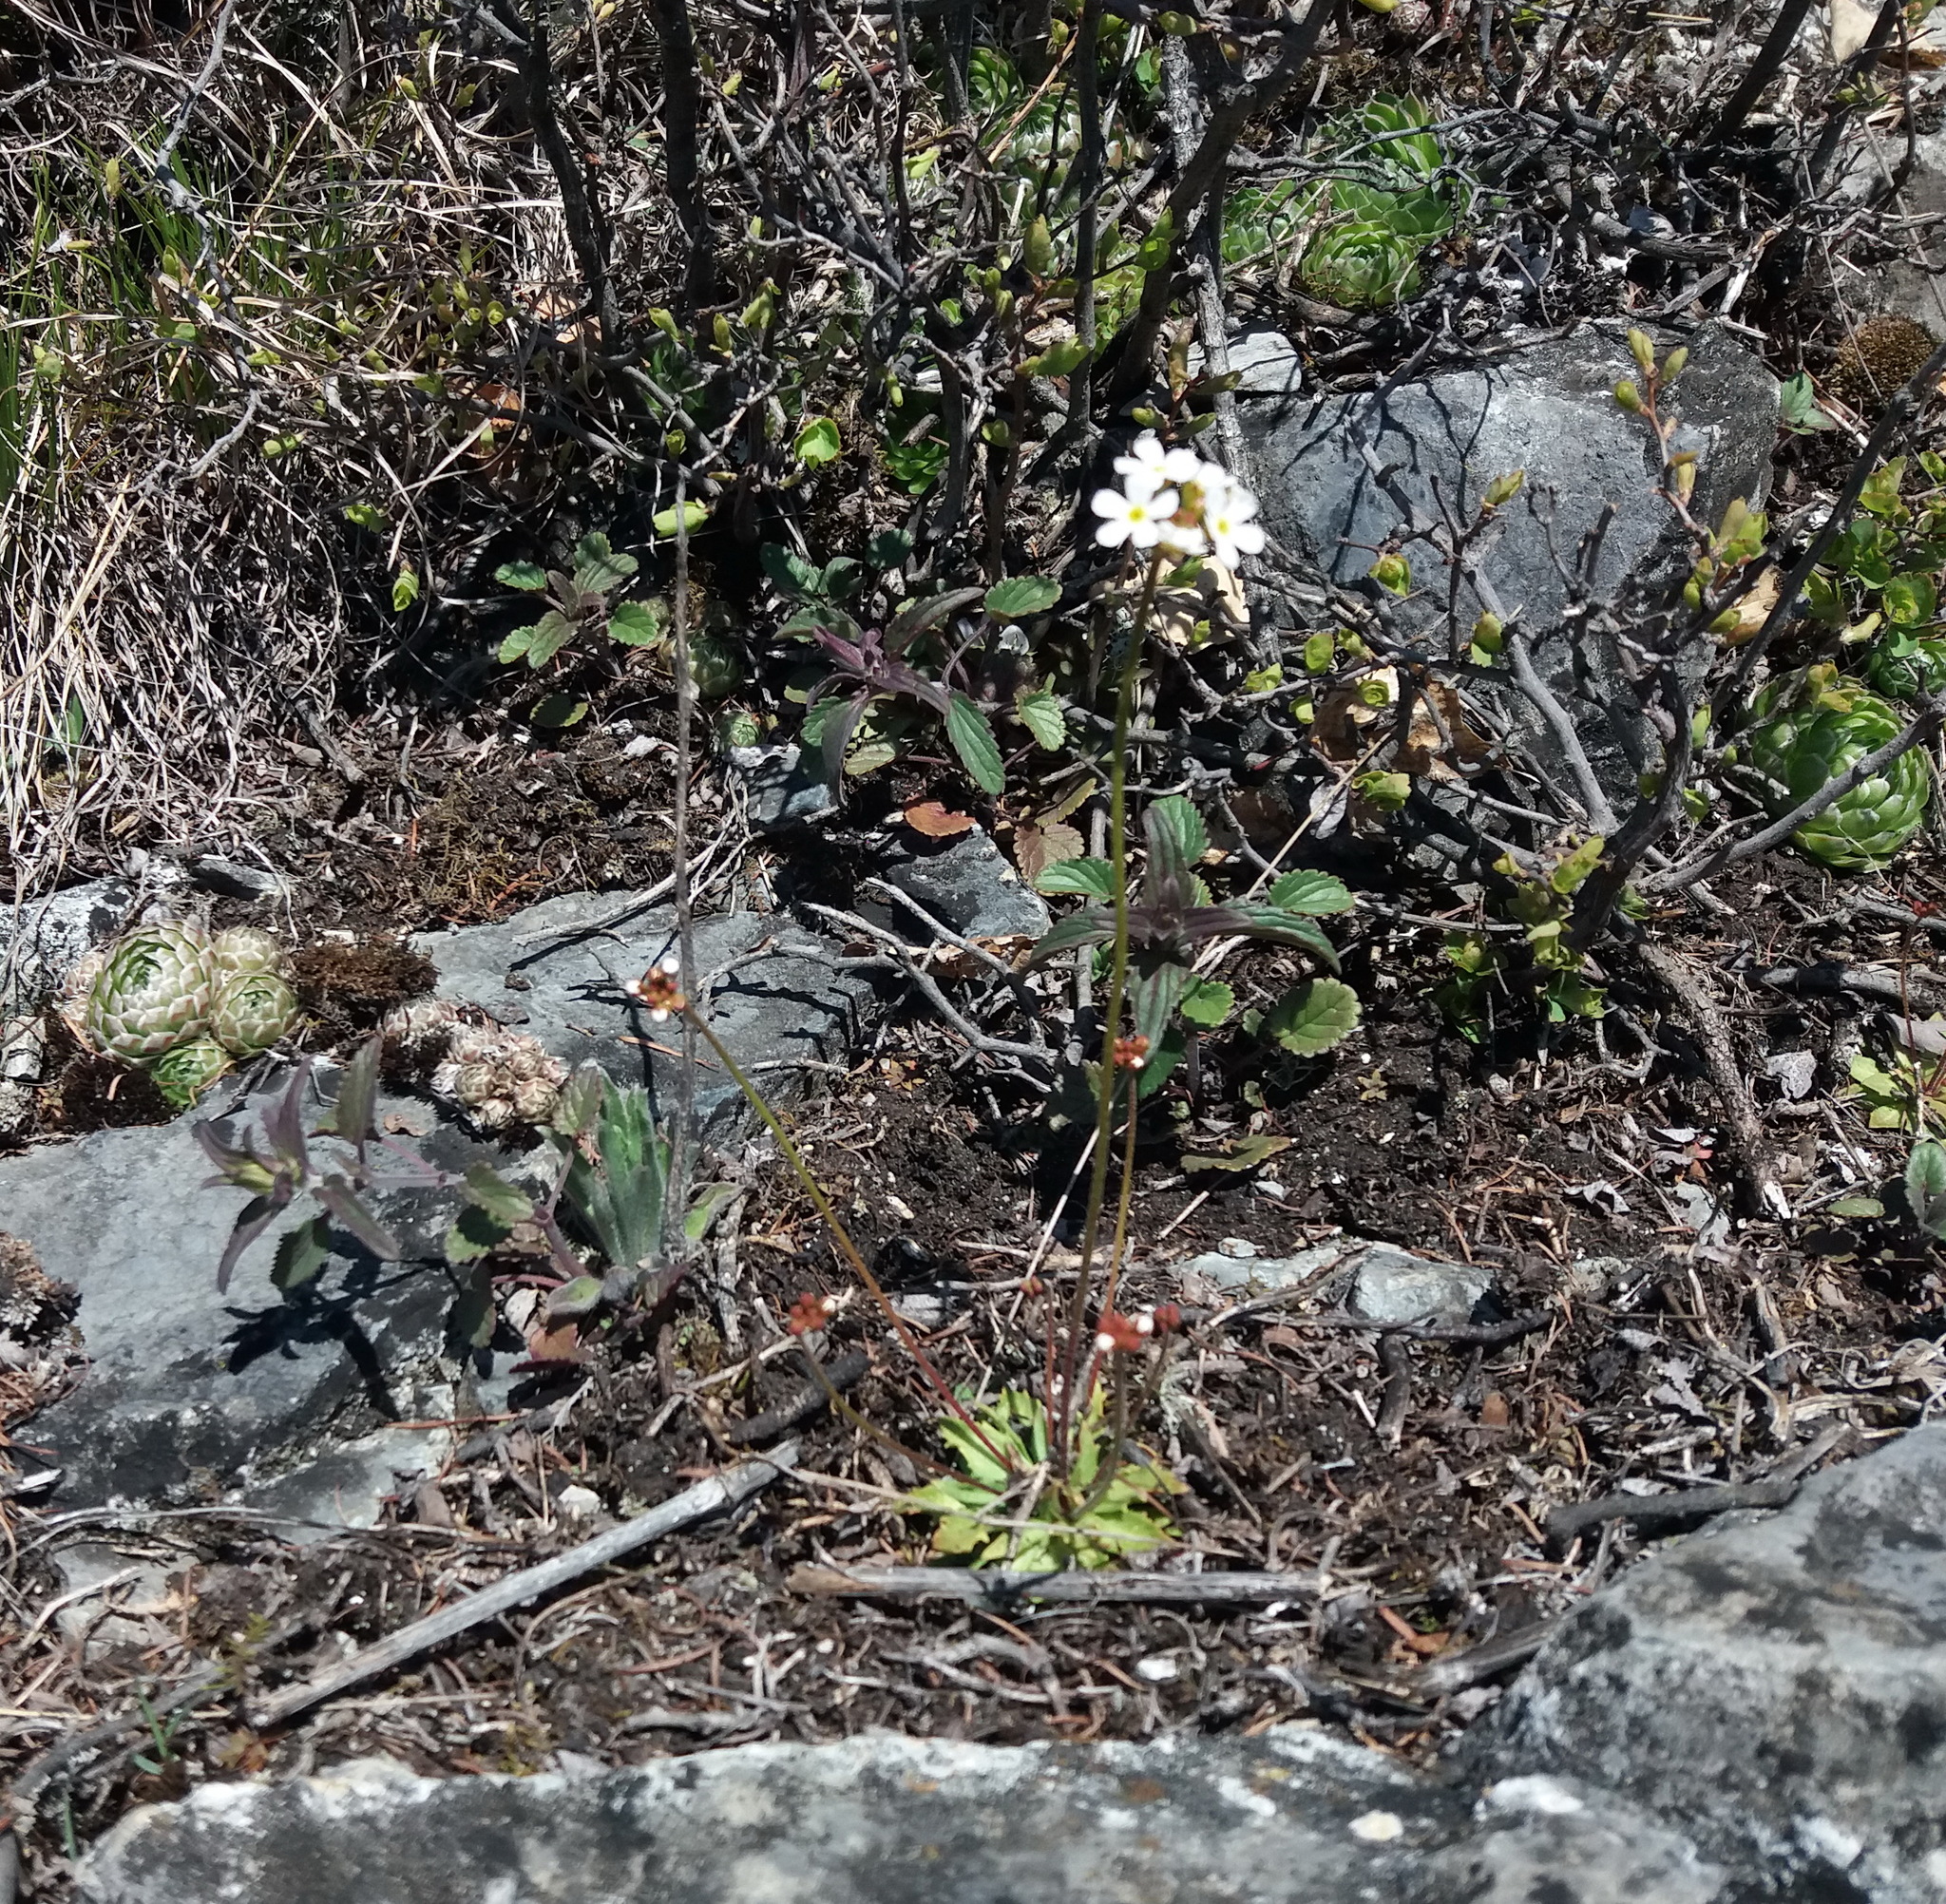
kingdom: Plantae
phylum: Tracheophyta
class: Magnoliopsida
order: Ericales
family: Primulaceae
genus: Androsace
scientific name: Androsace lactiflora
